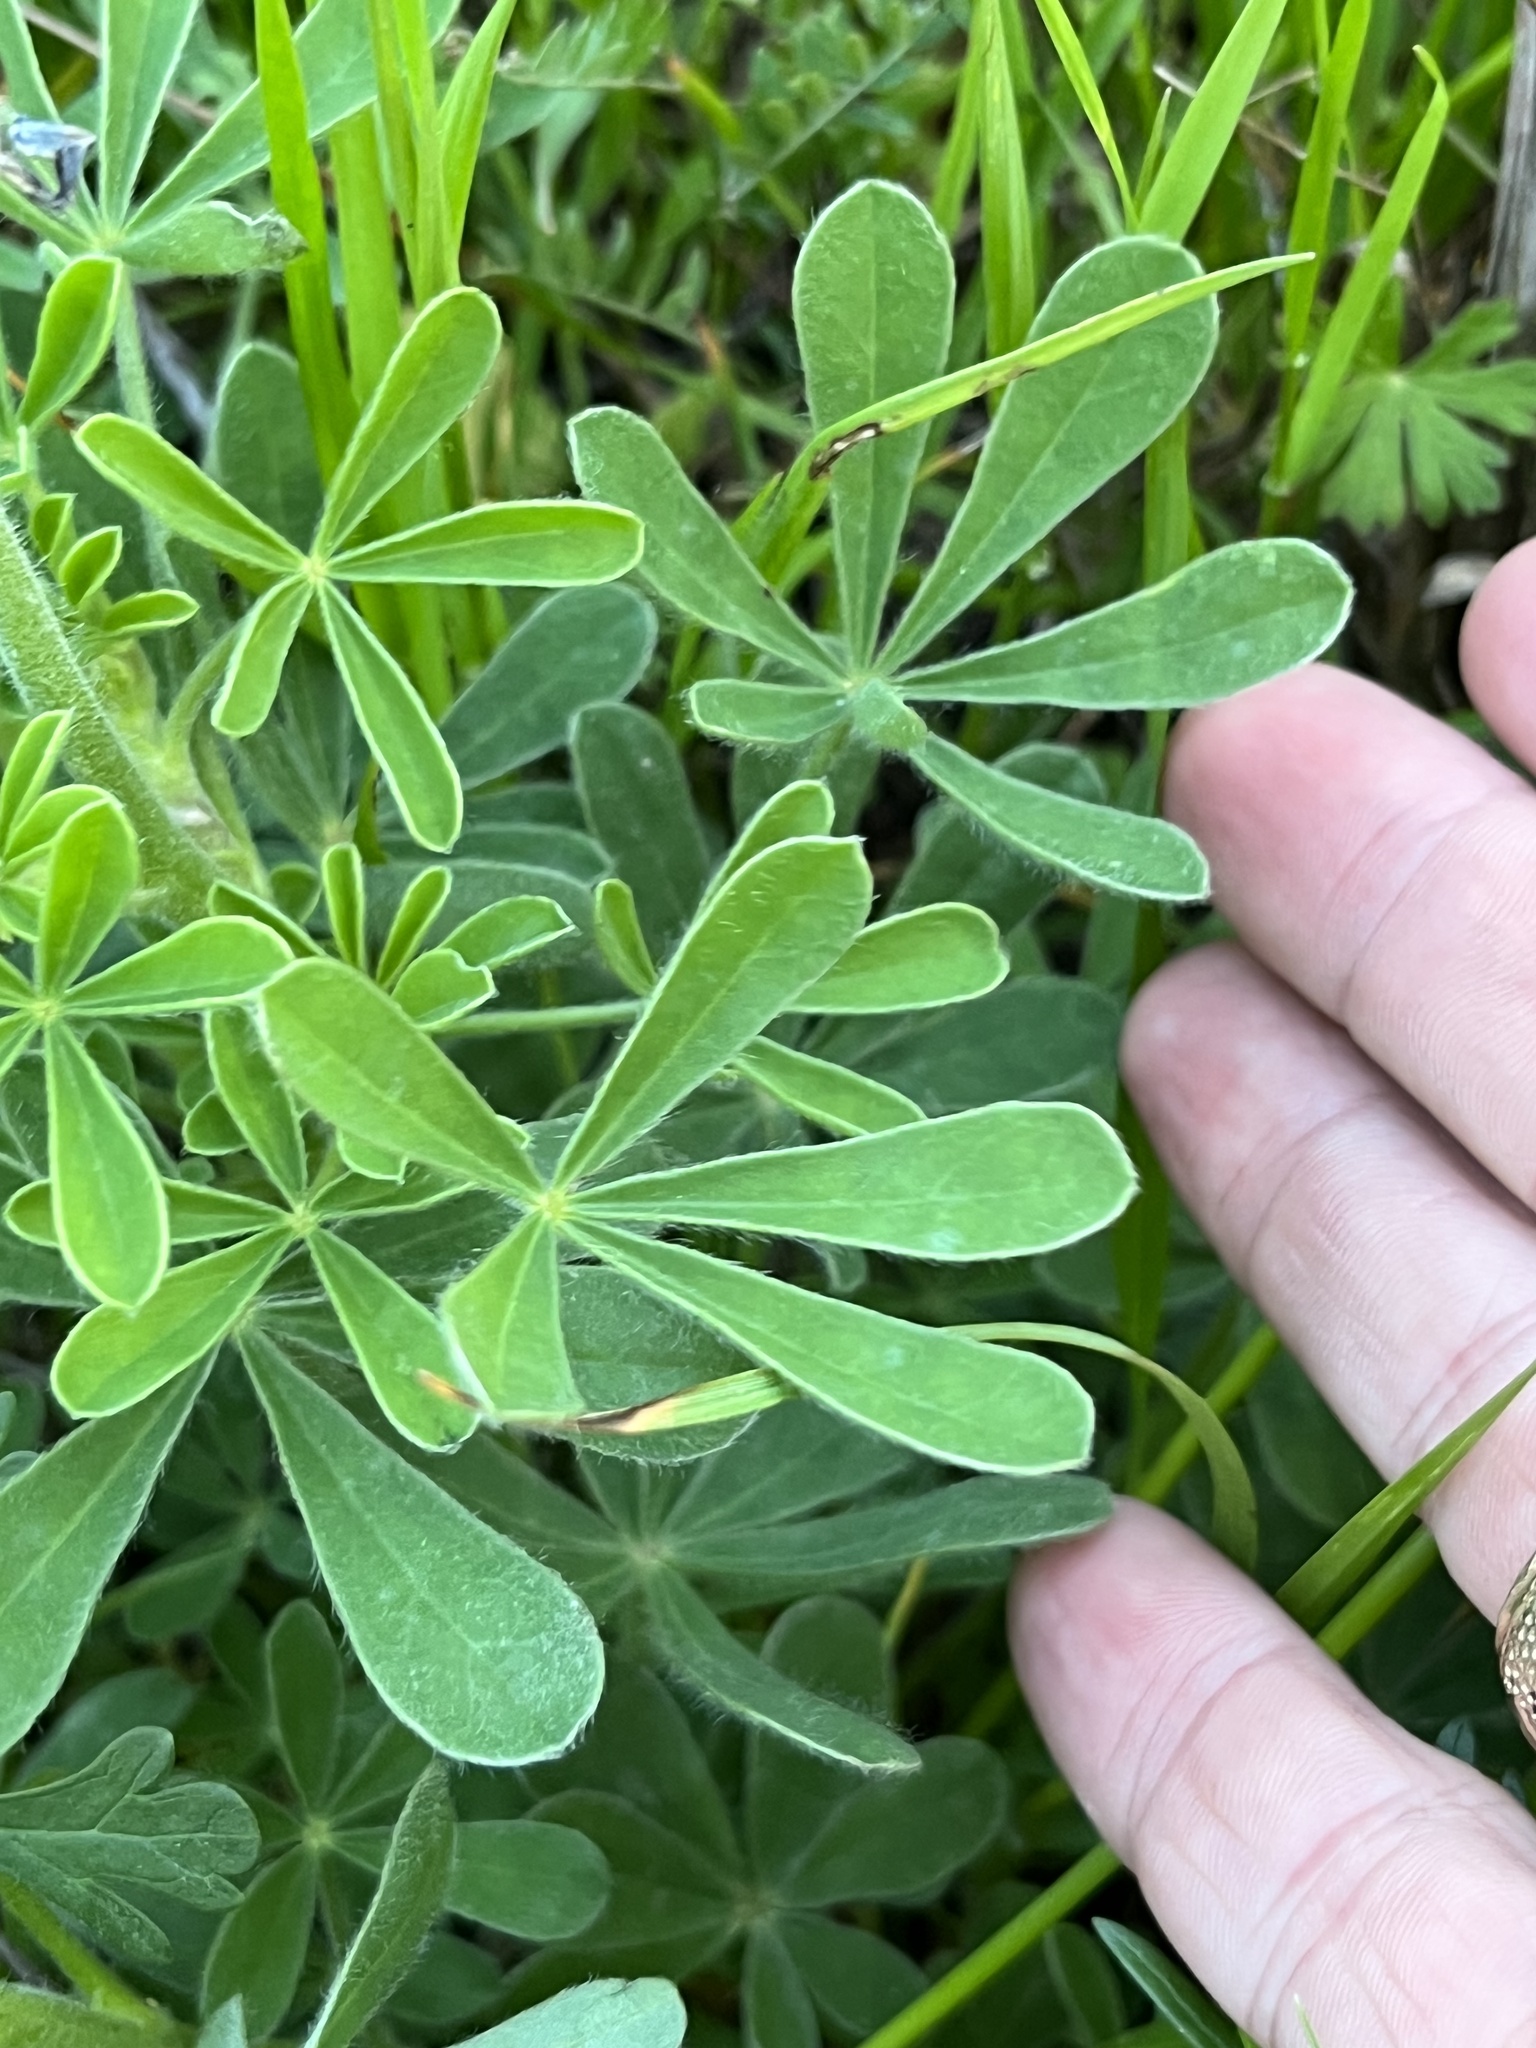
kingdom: Plantae
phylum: Tracheophyta
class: Magnoliopsida
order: Fabales
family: Fabaceae
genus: Lupinus
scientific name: Lupinus subcarnosus
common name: Texas bluebonnet
